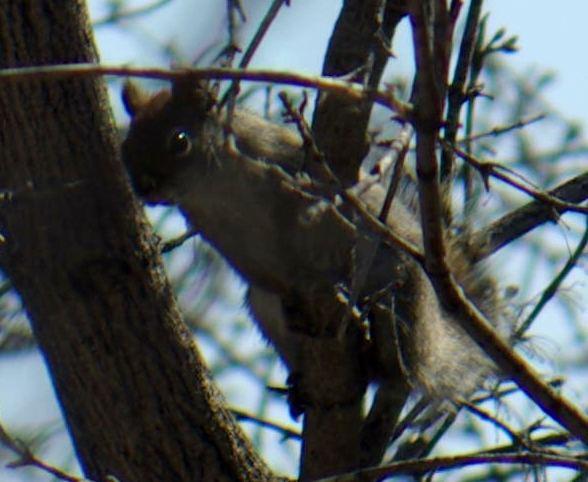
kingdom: Animalia
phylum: Chordata
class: Mammalia
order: Rodentia
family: Sciuridae
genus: Tamiasciurus
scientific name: Tamiasciurus hudsonicus
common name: Red squirrel
